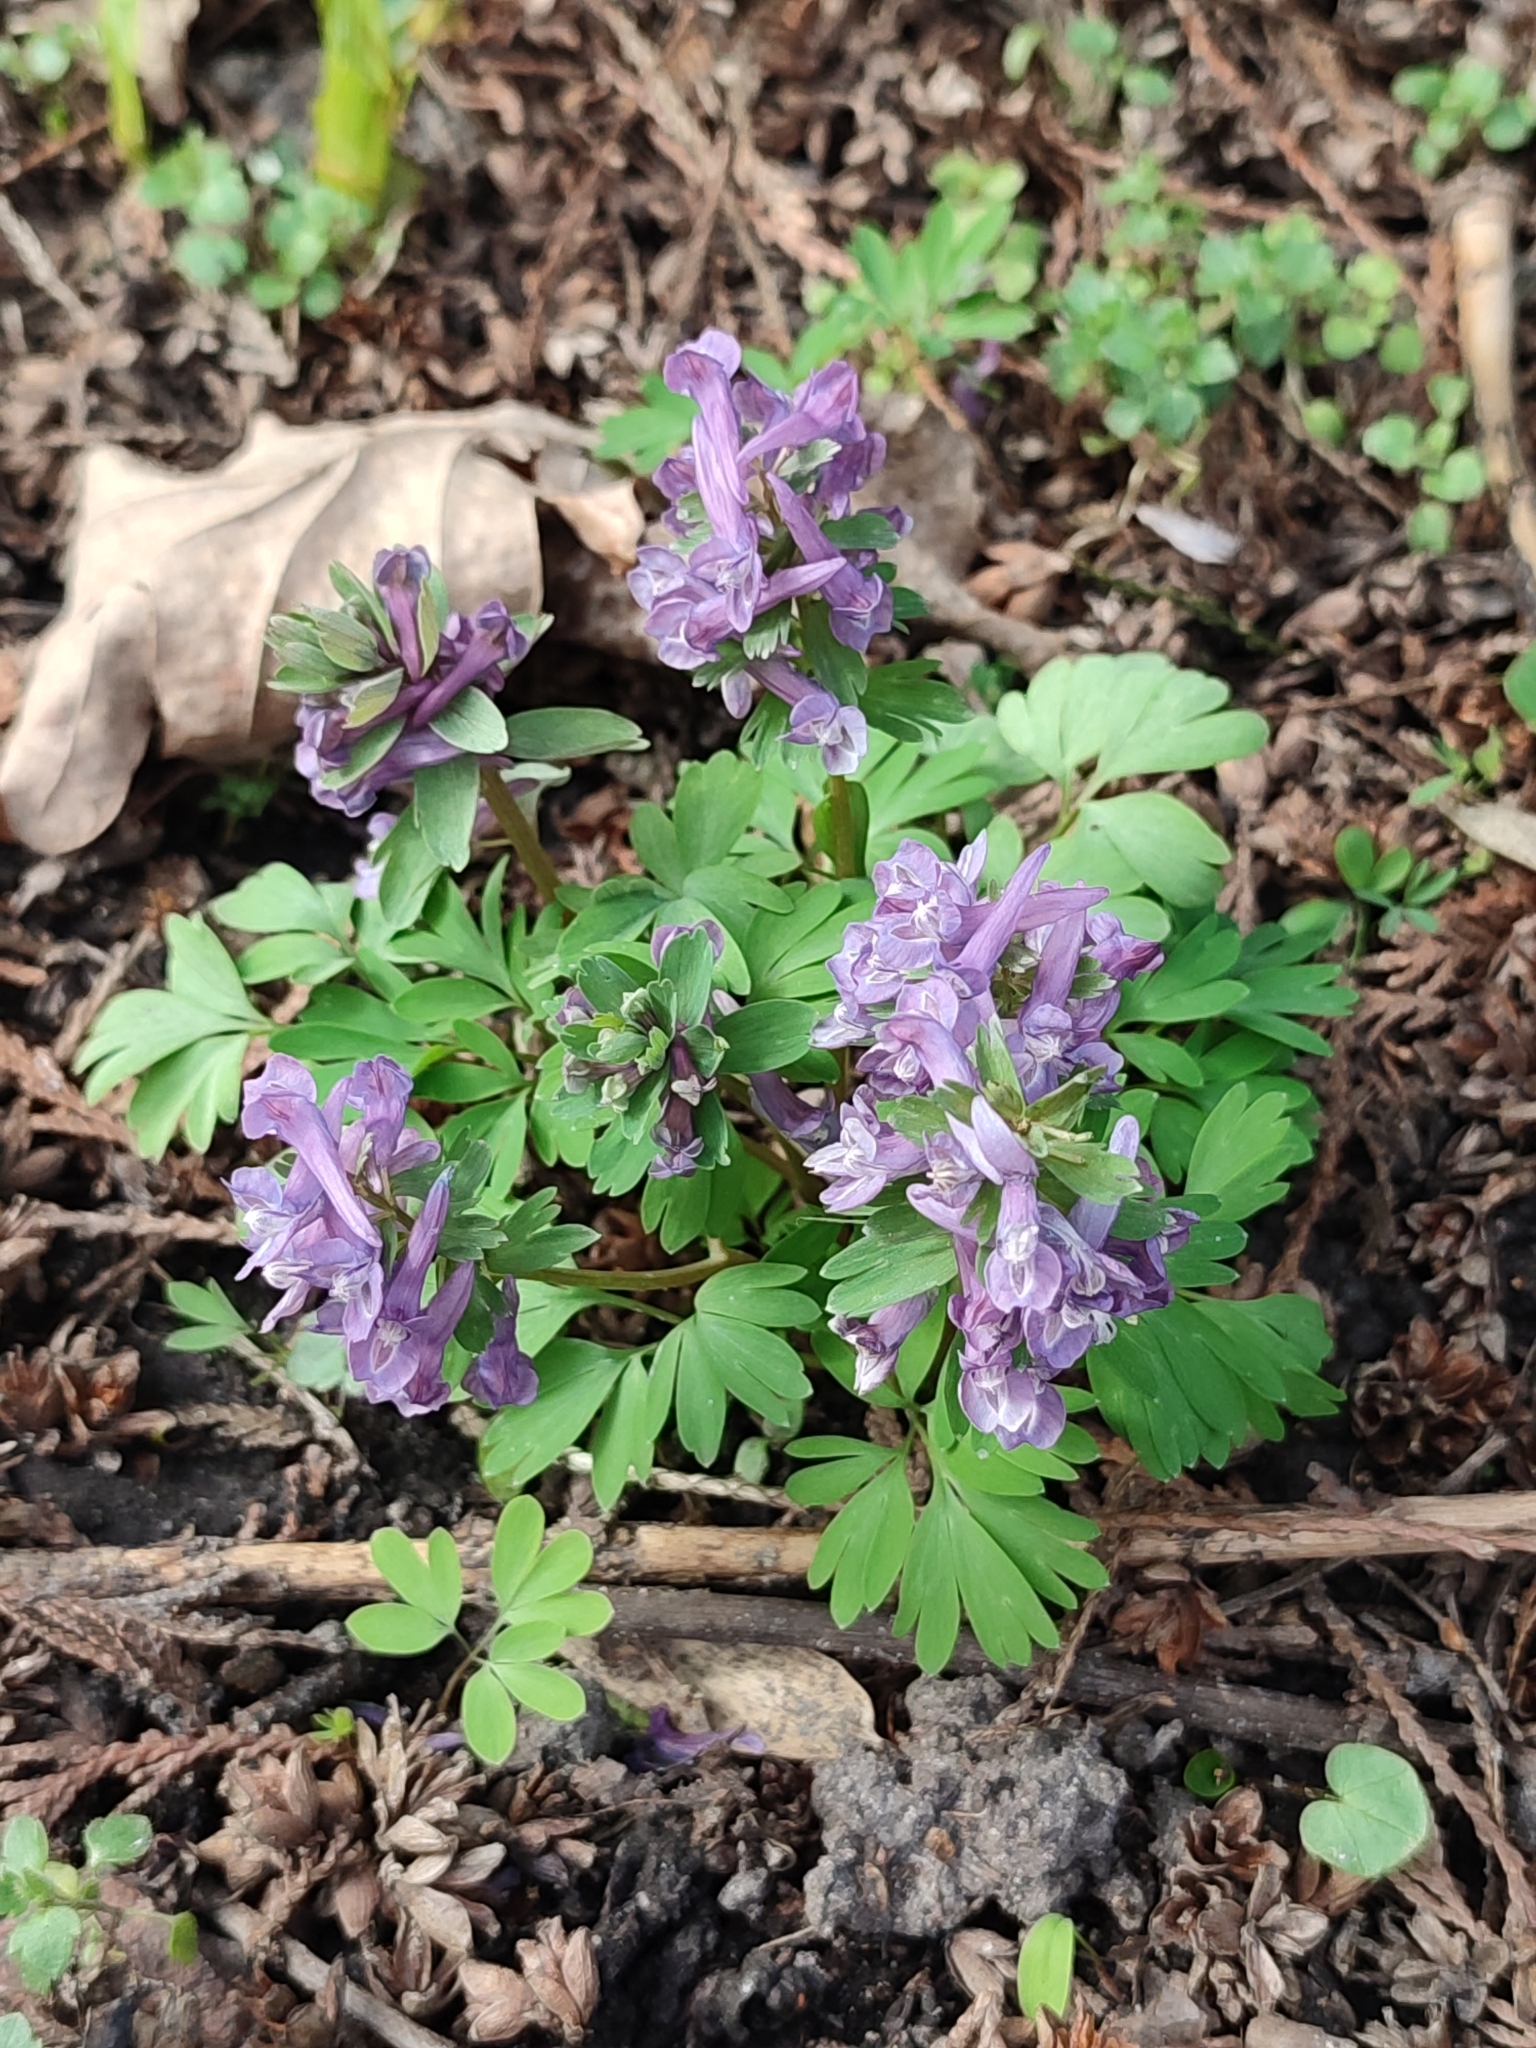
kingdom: Plantae
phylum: Tracheophyta
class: Magnoliopsida
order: Ranunculales
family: Papaveraceae
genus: Corydalis
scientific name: Corydalis solida
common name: Bird-in-a-bush
